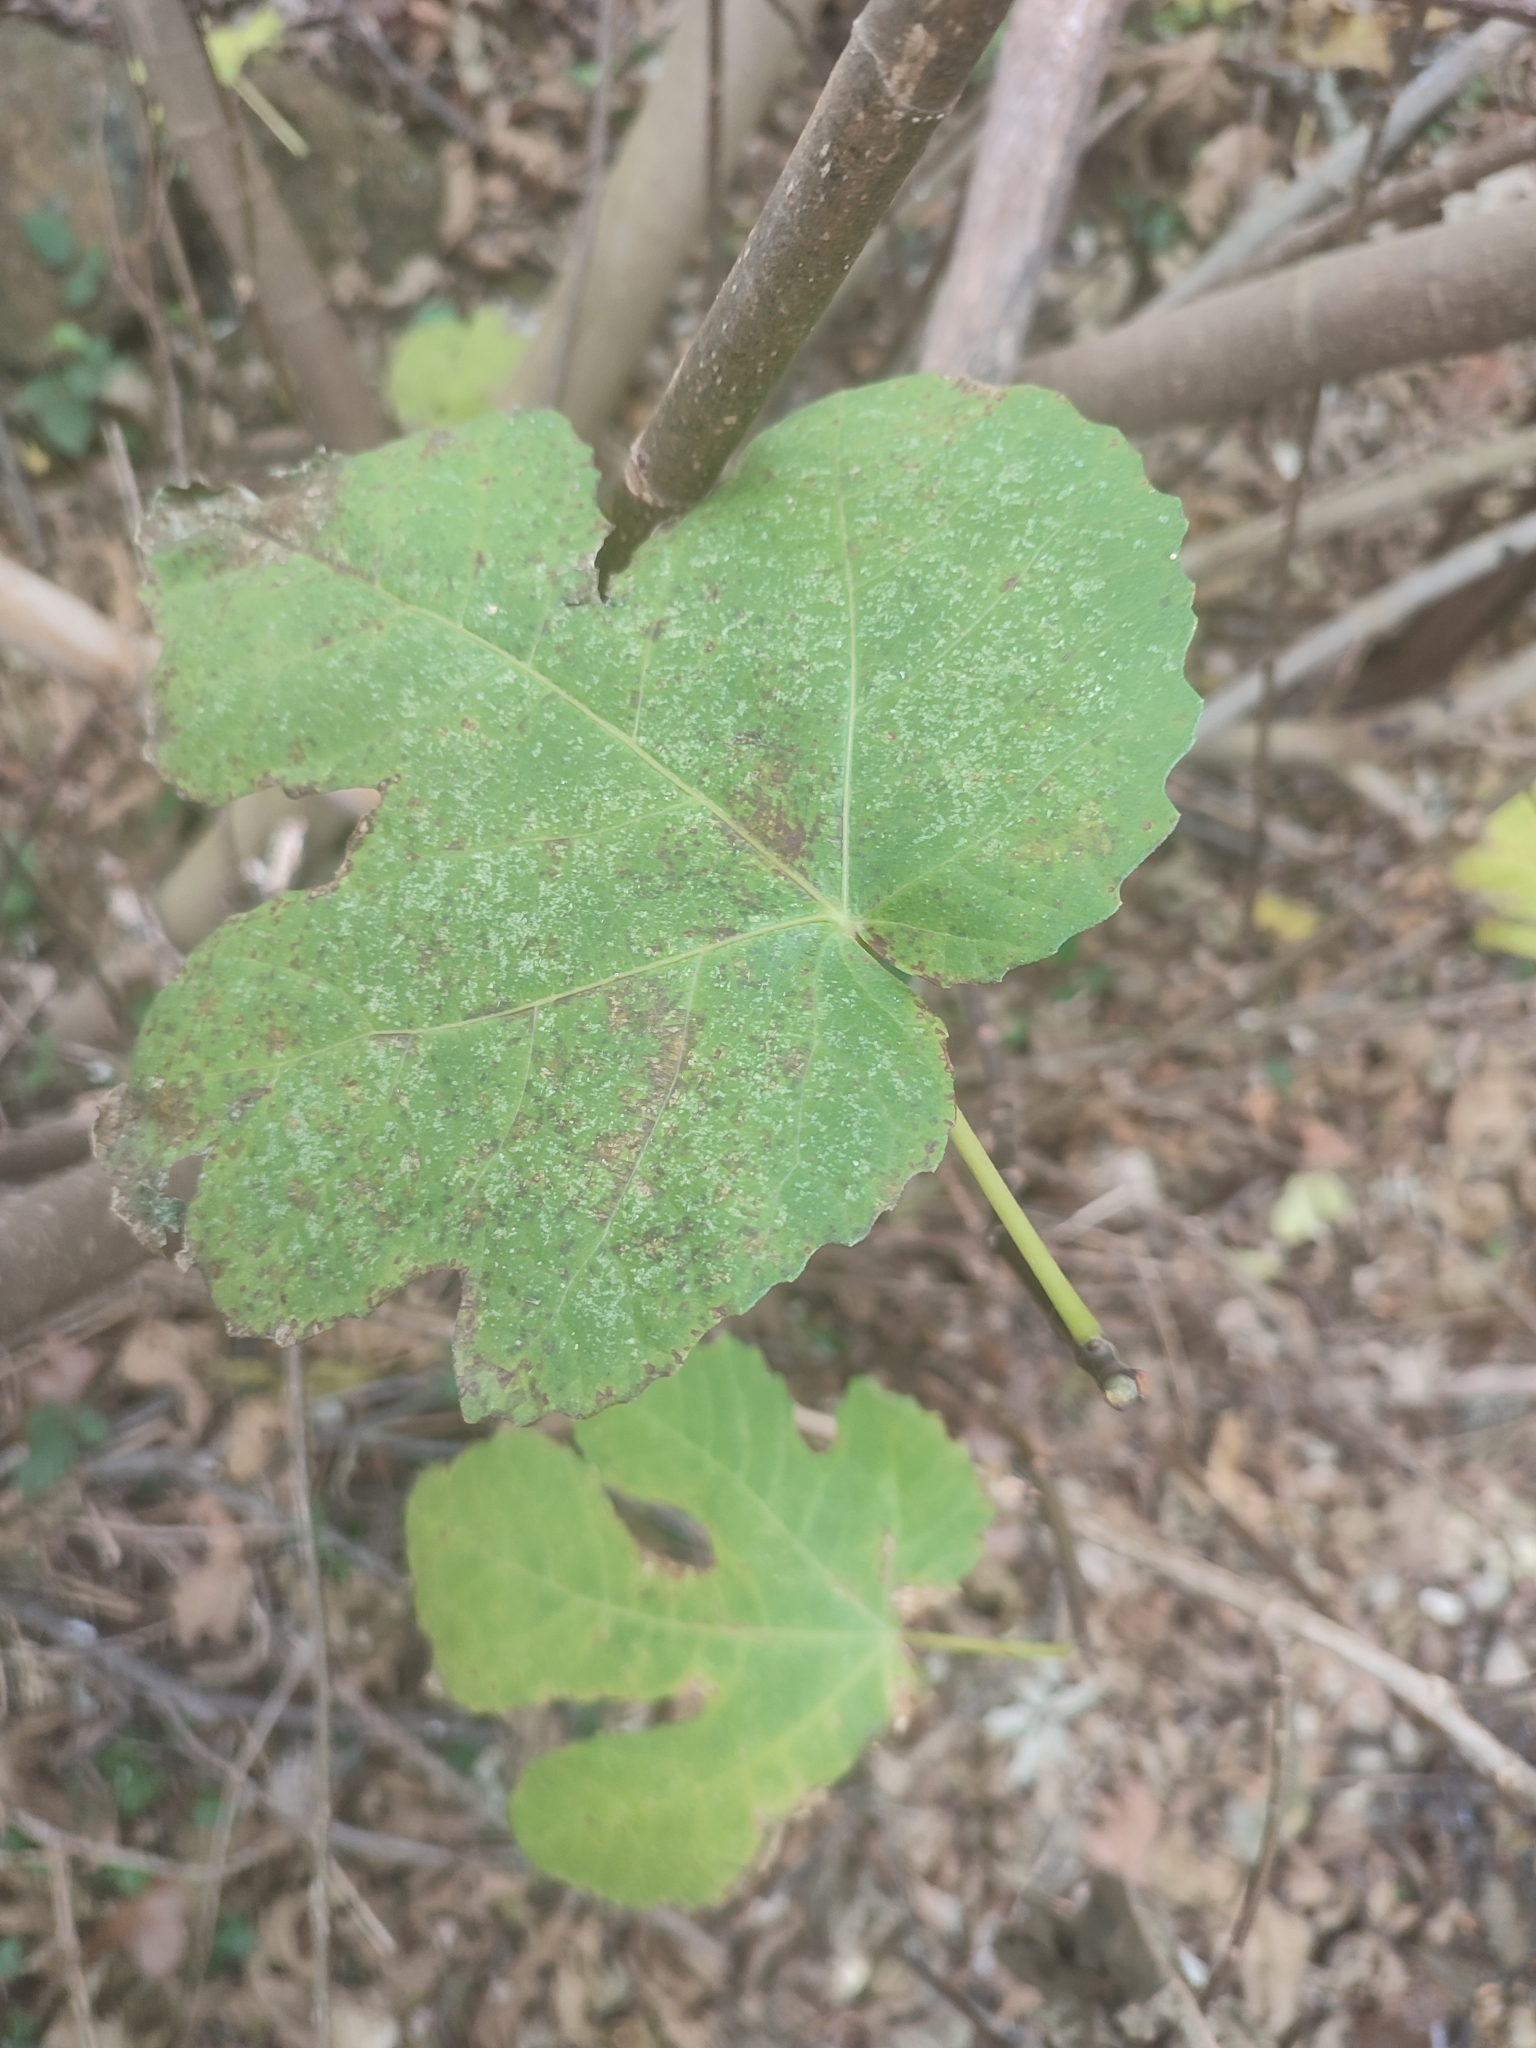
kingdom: Plantae
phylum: Tracheophyta
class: Magnoliopsida
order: Rosales
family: Moraceae
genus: Ficus
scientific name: Ficus carica
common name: Fig
